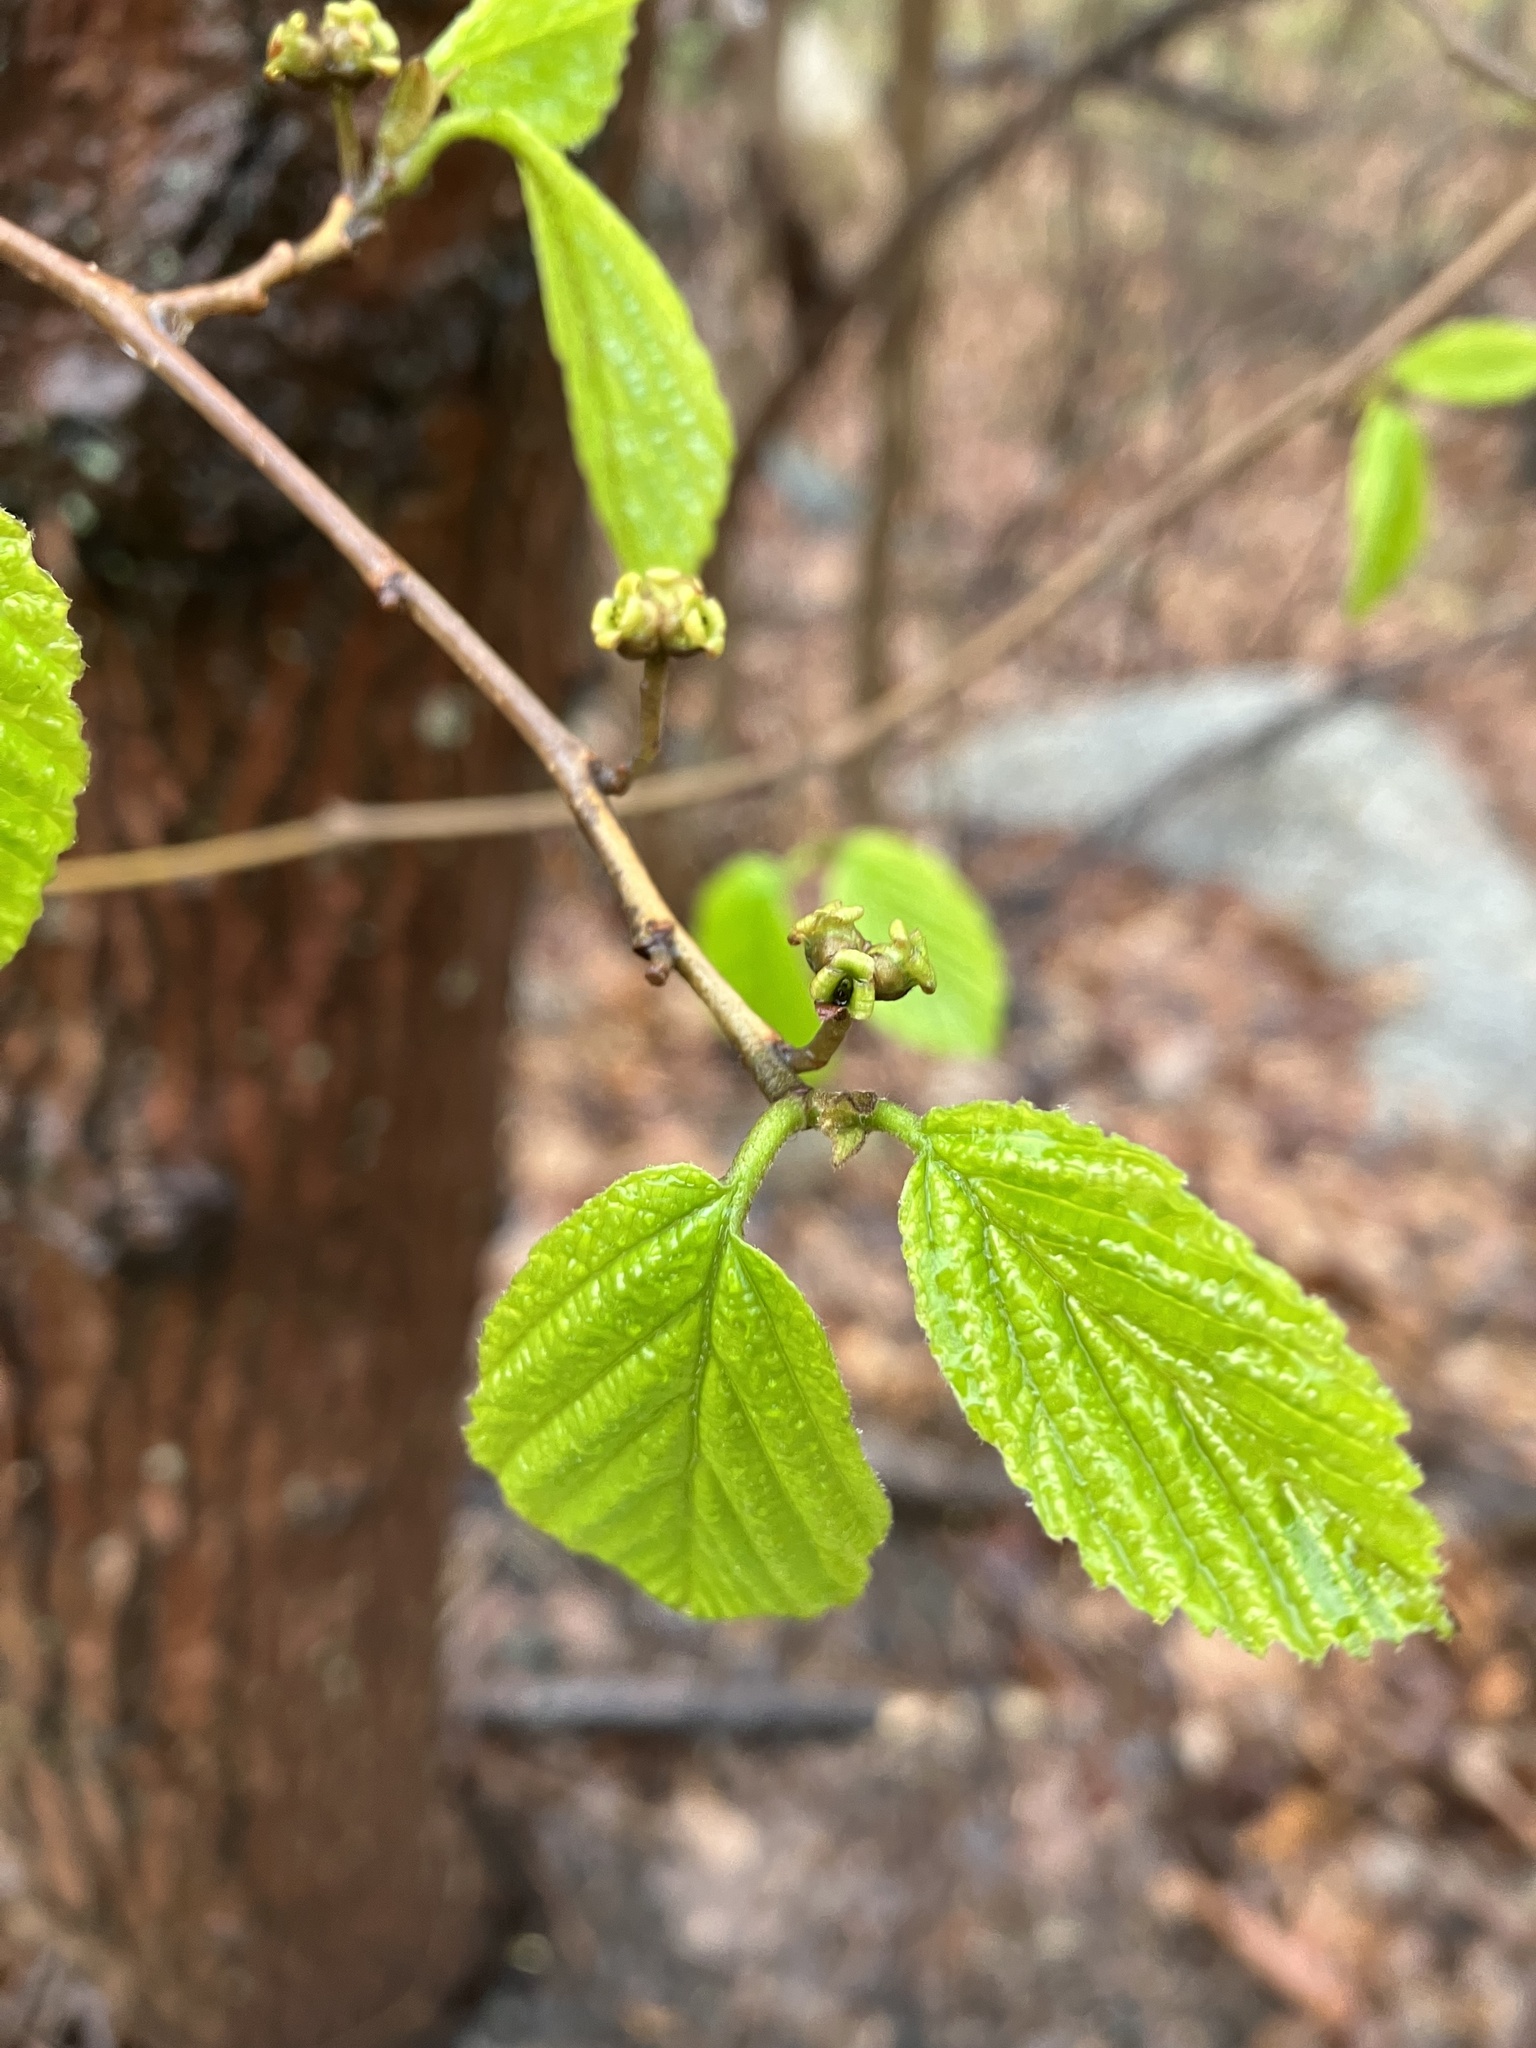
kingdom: Plantae
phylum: Tracheophyta
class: Magnoliopsida
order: Saxifragales
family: Hamamelidaceae
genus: Hamamelis
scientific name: Hamamelis virginiana
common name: Witch-hazel
